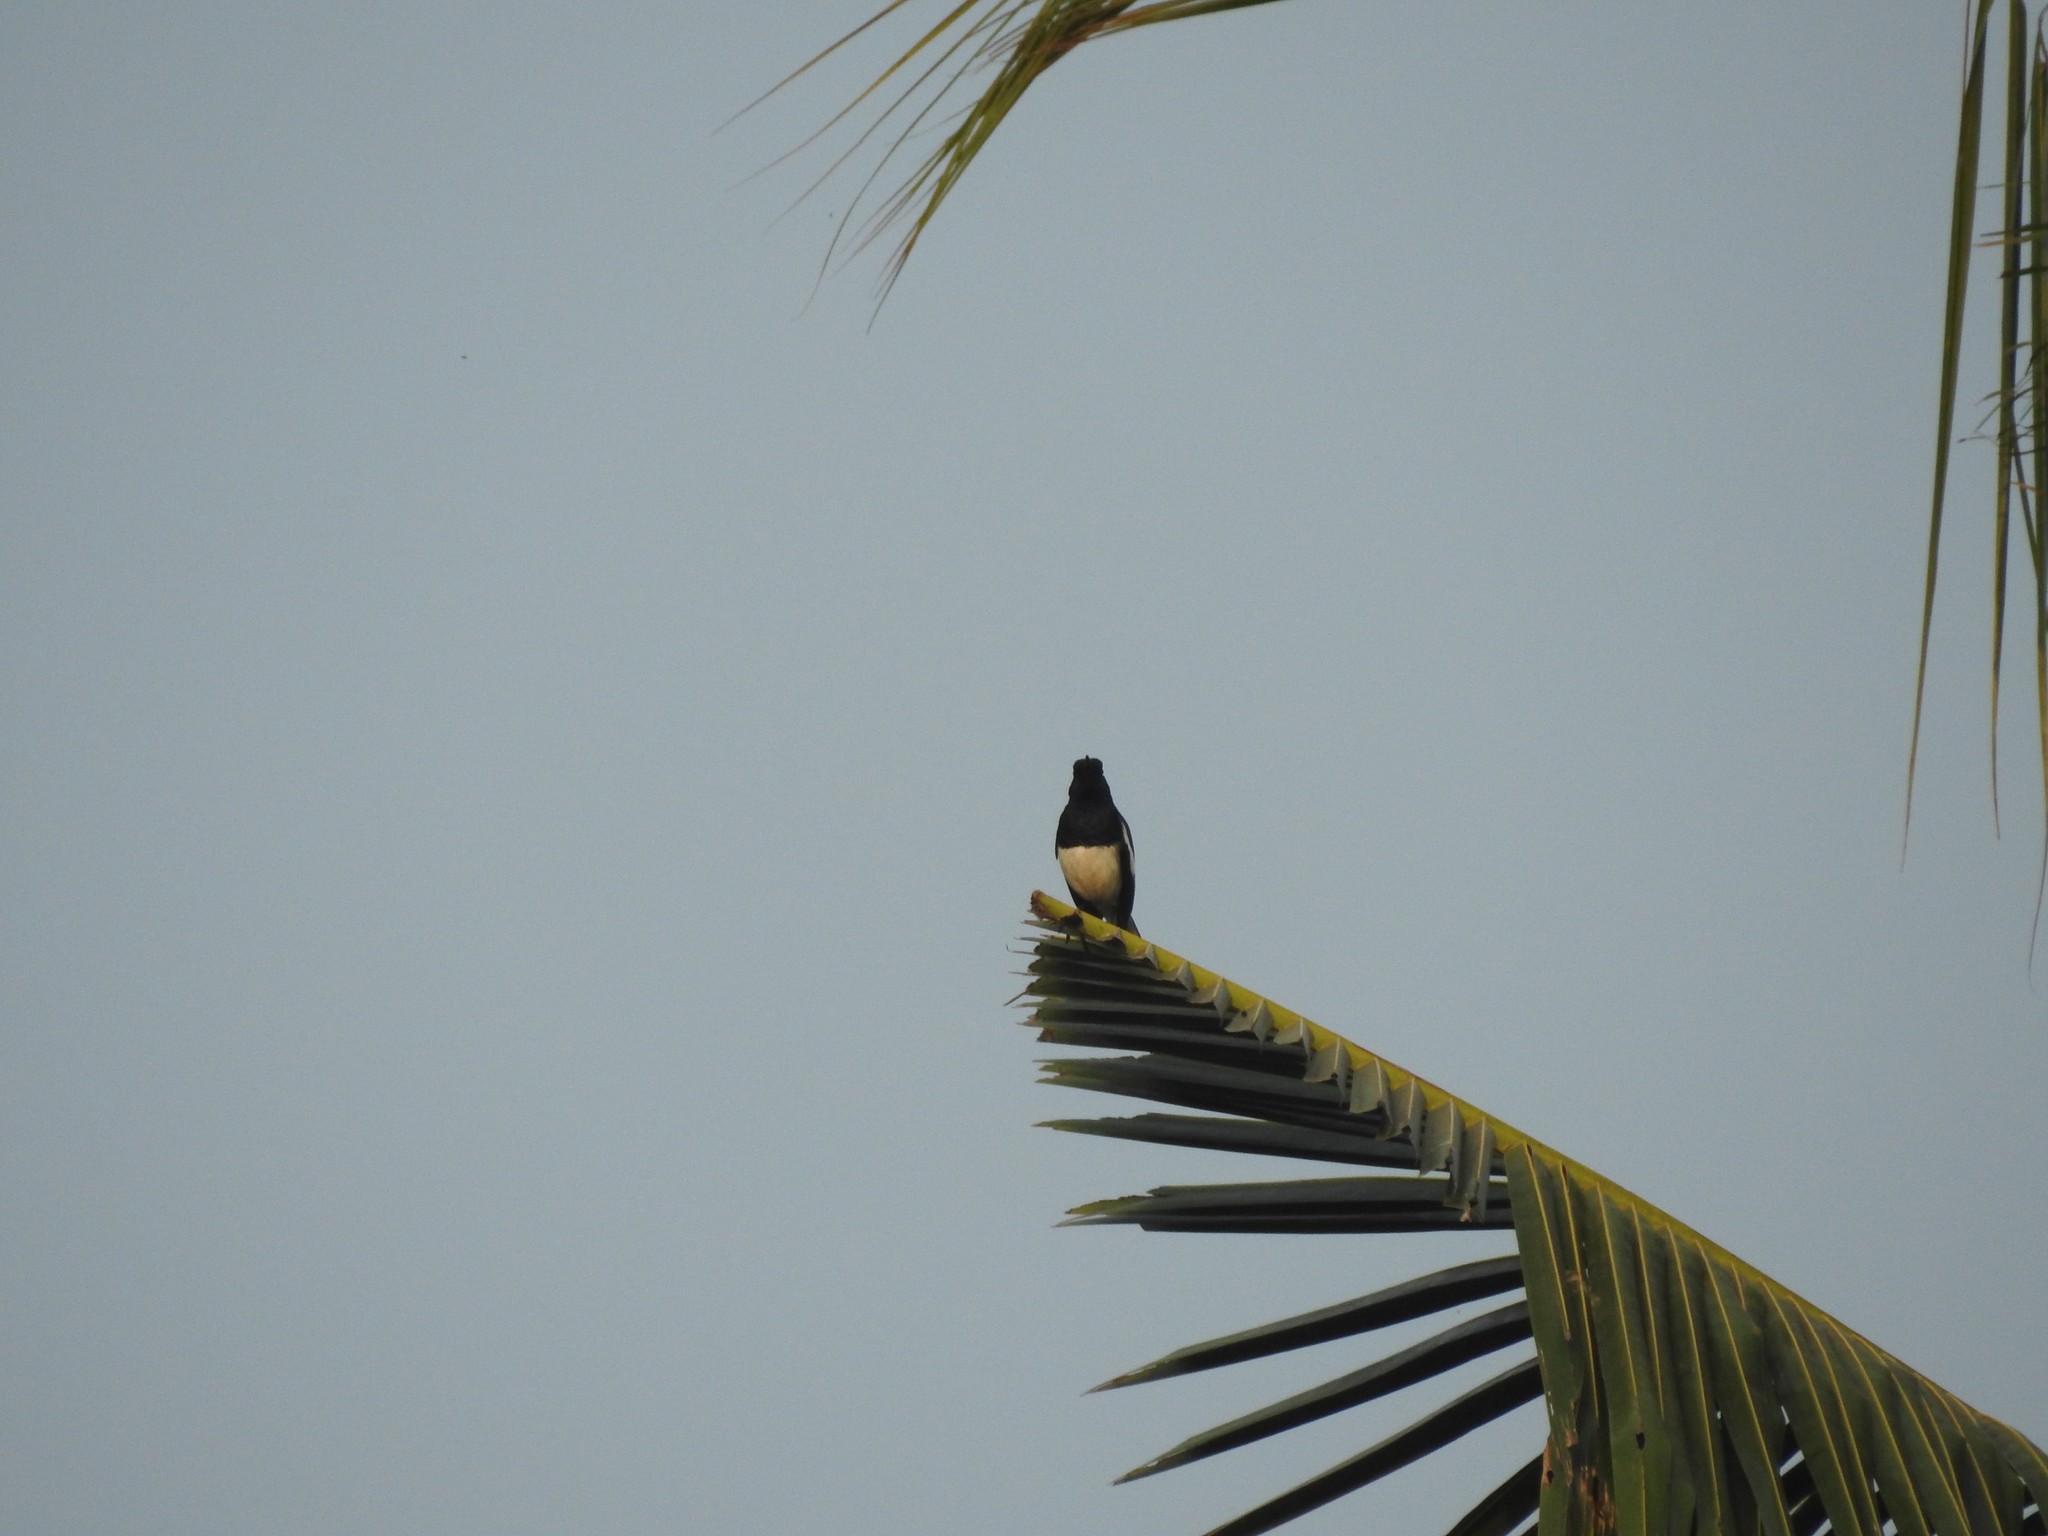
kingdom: Animalia
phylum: Chordata
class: Aves
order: Passeriformes
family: Muscicapidae
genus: Copsychus
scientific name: Copsychus saularis
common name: Oriental magpie-robin
